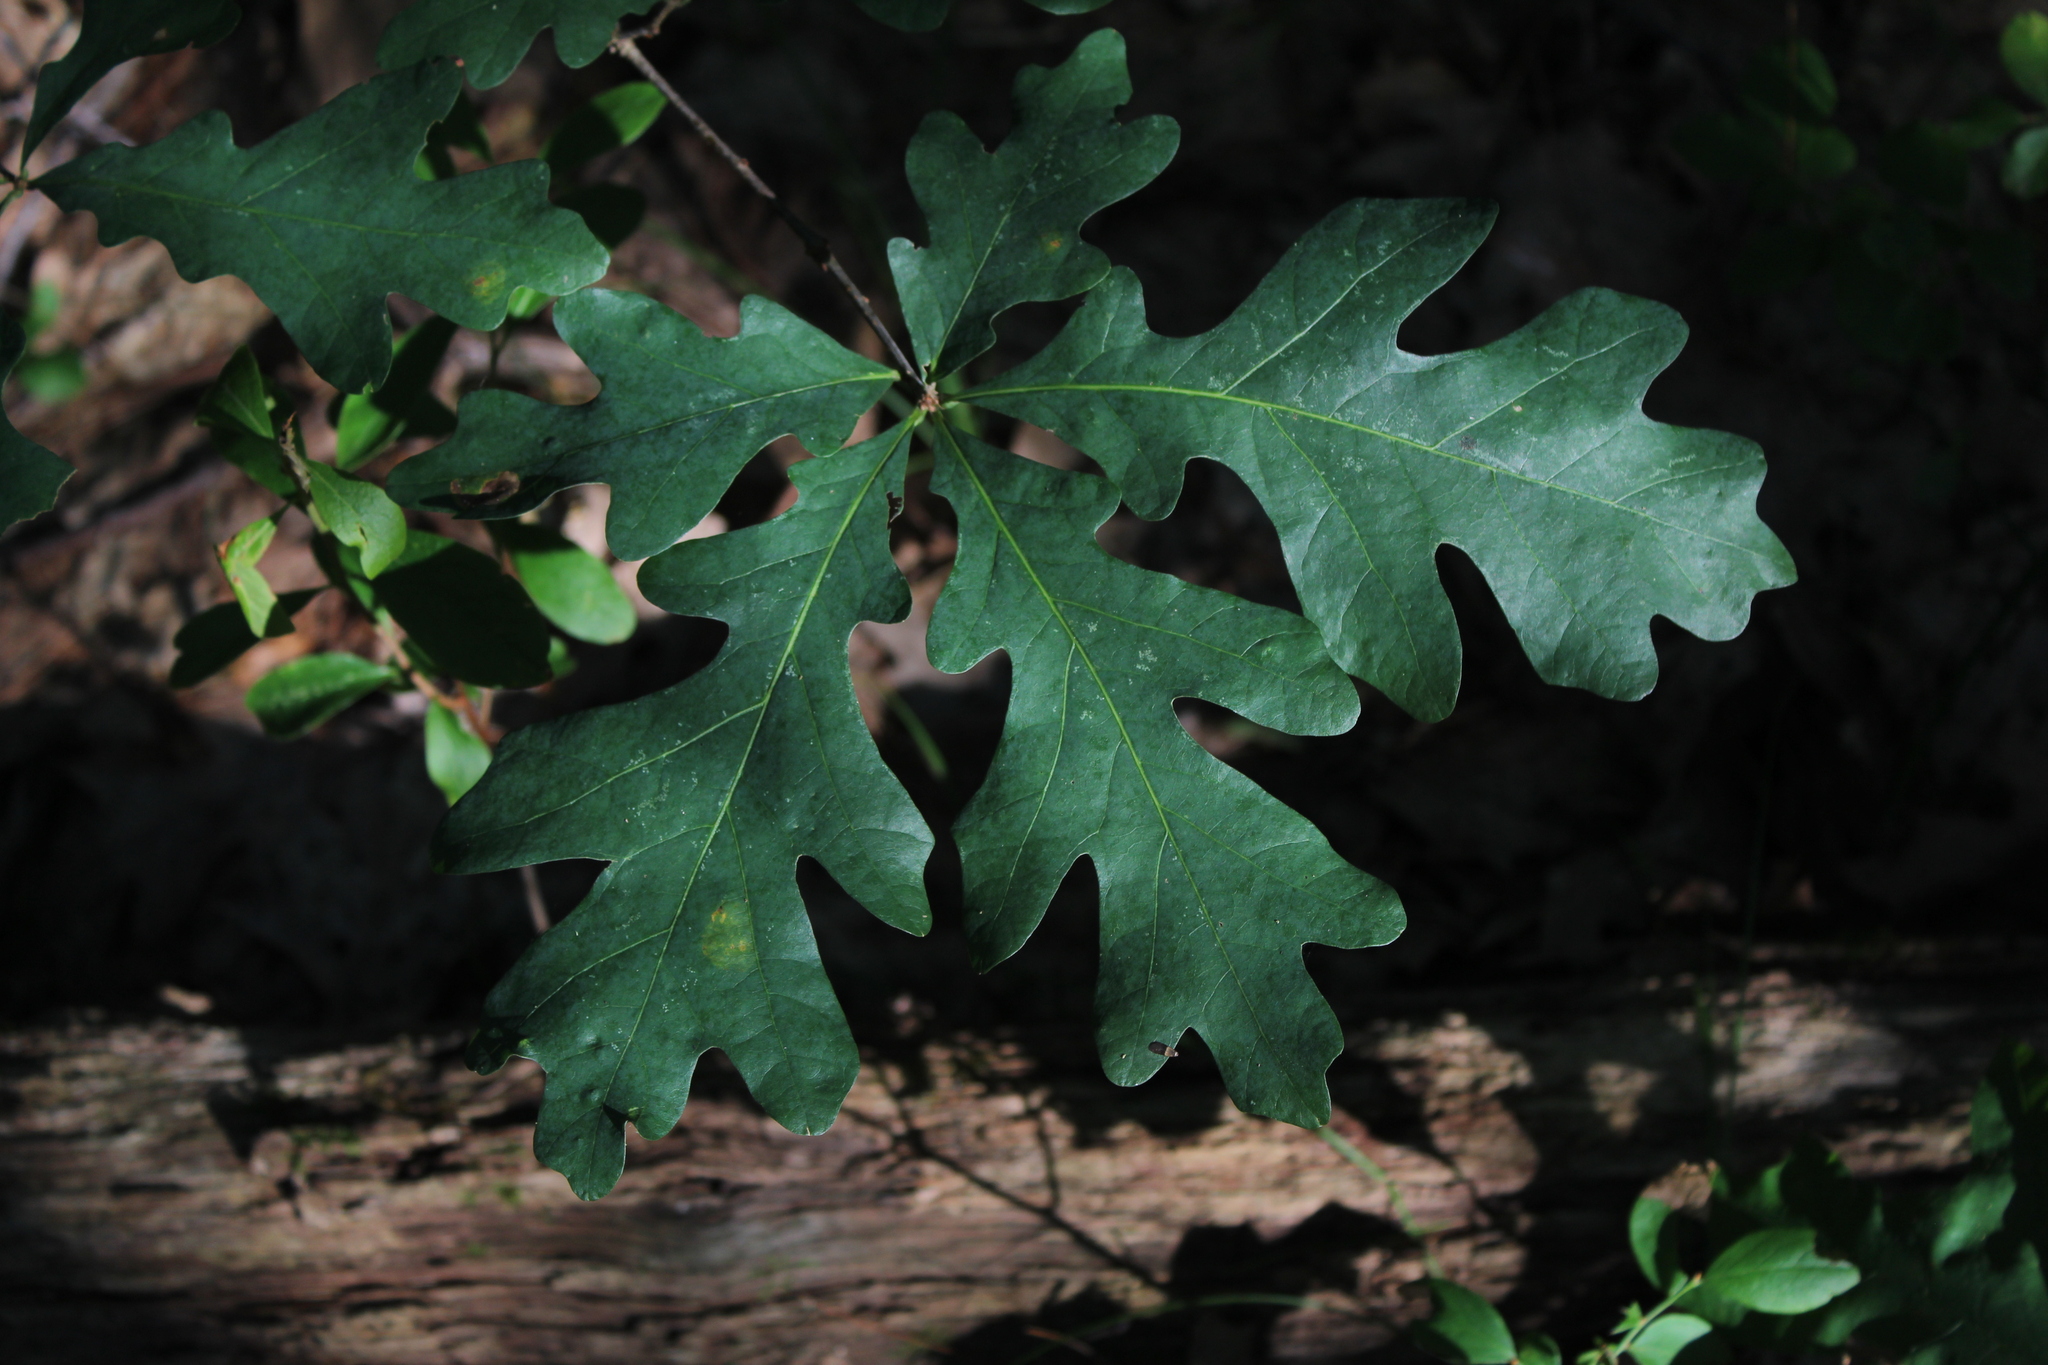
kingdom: Plantae
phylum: Tracheophyta
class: Magnoliopsida
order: Fagales
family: Fagaceae
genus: Quercus
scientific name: Quercus alba
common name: White oak
